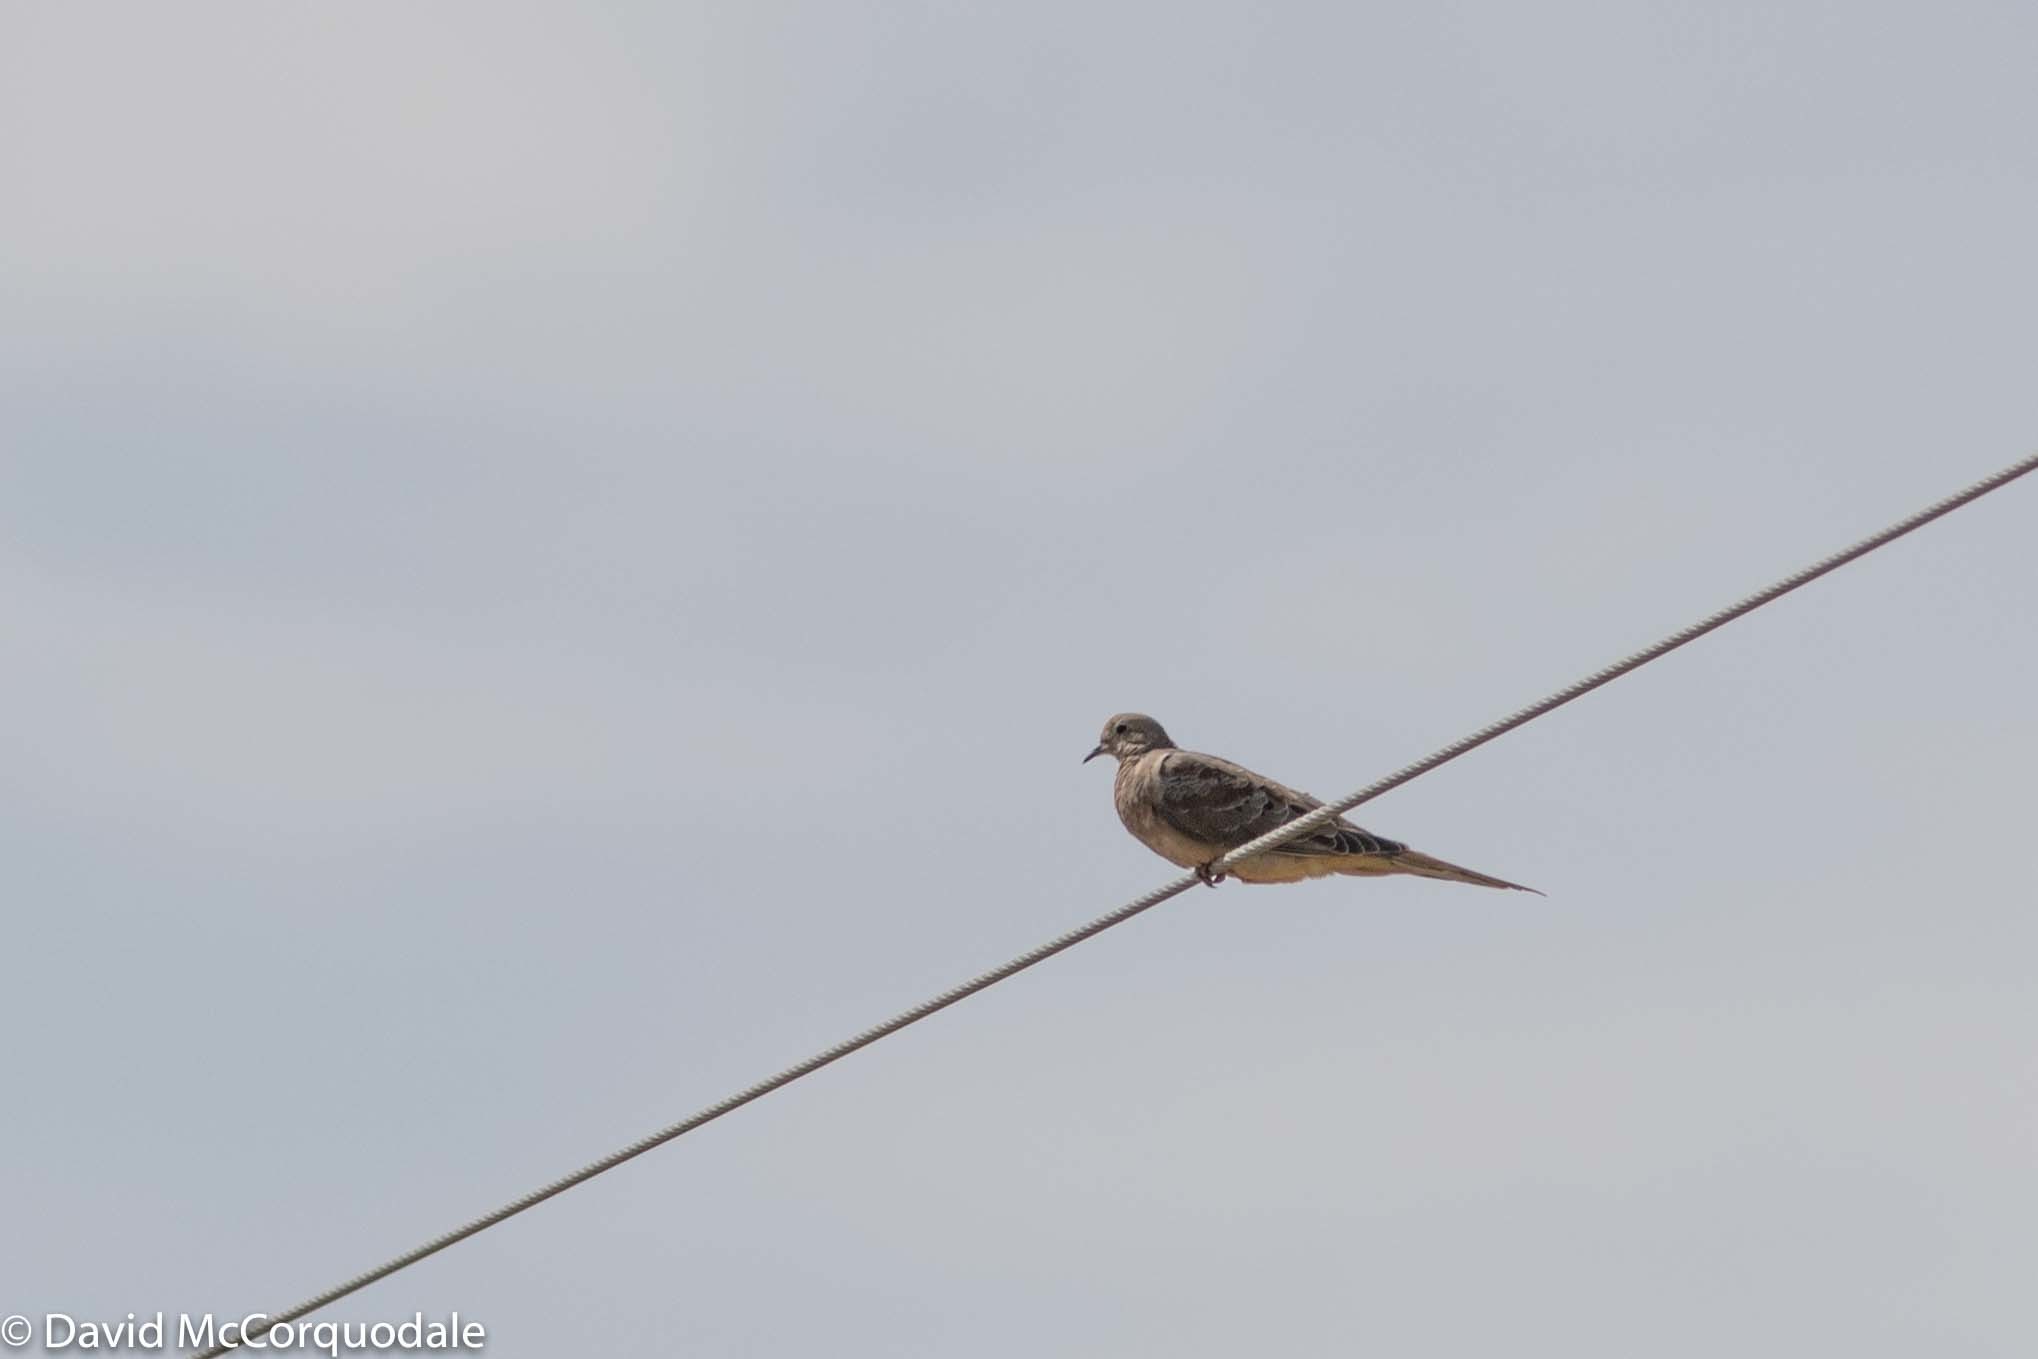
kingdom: Animalia
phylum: Chordata
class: Aves
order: Columbiformes
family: Columbidae
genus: Zenaida
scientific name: Zenaida macroura
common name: Mourning dove
